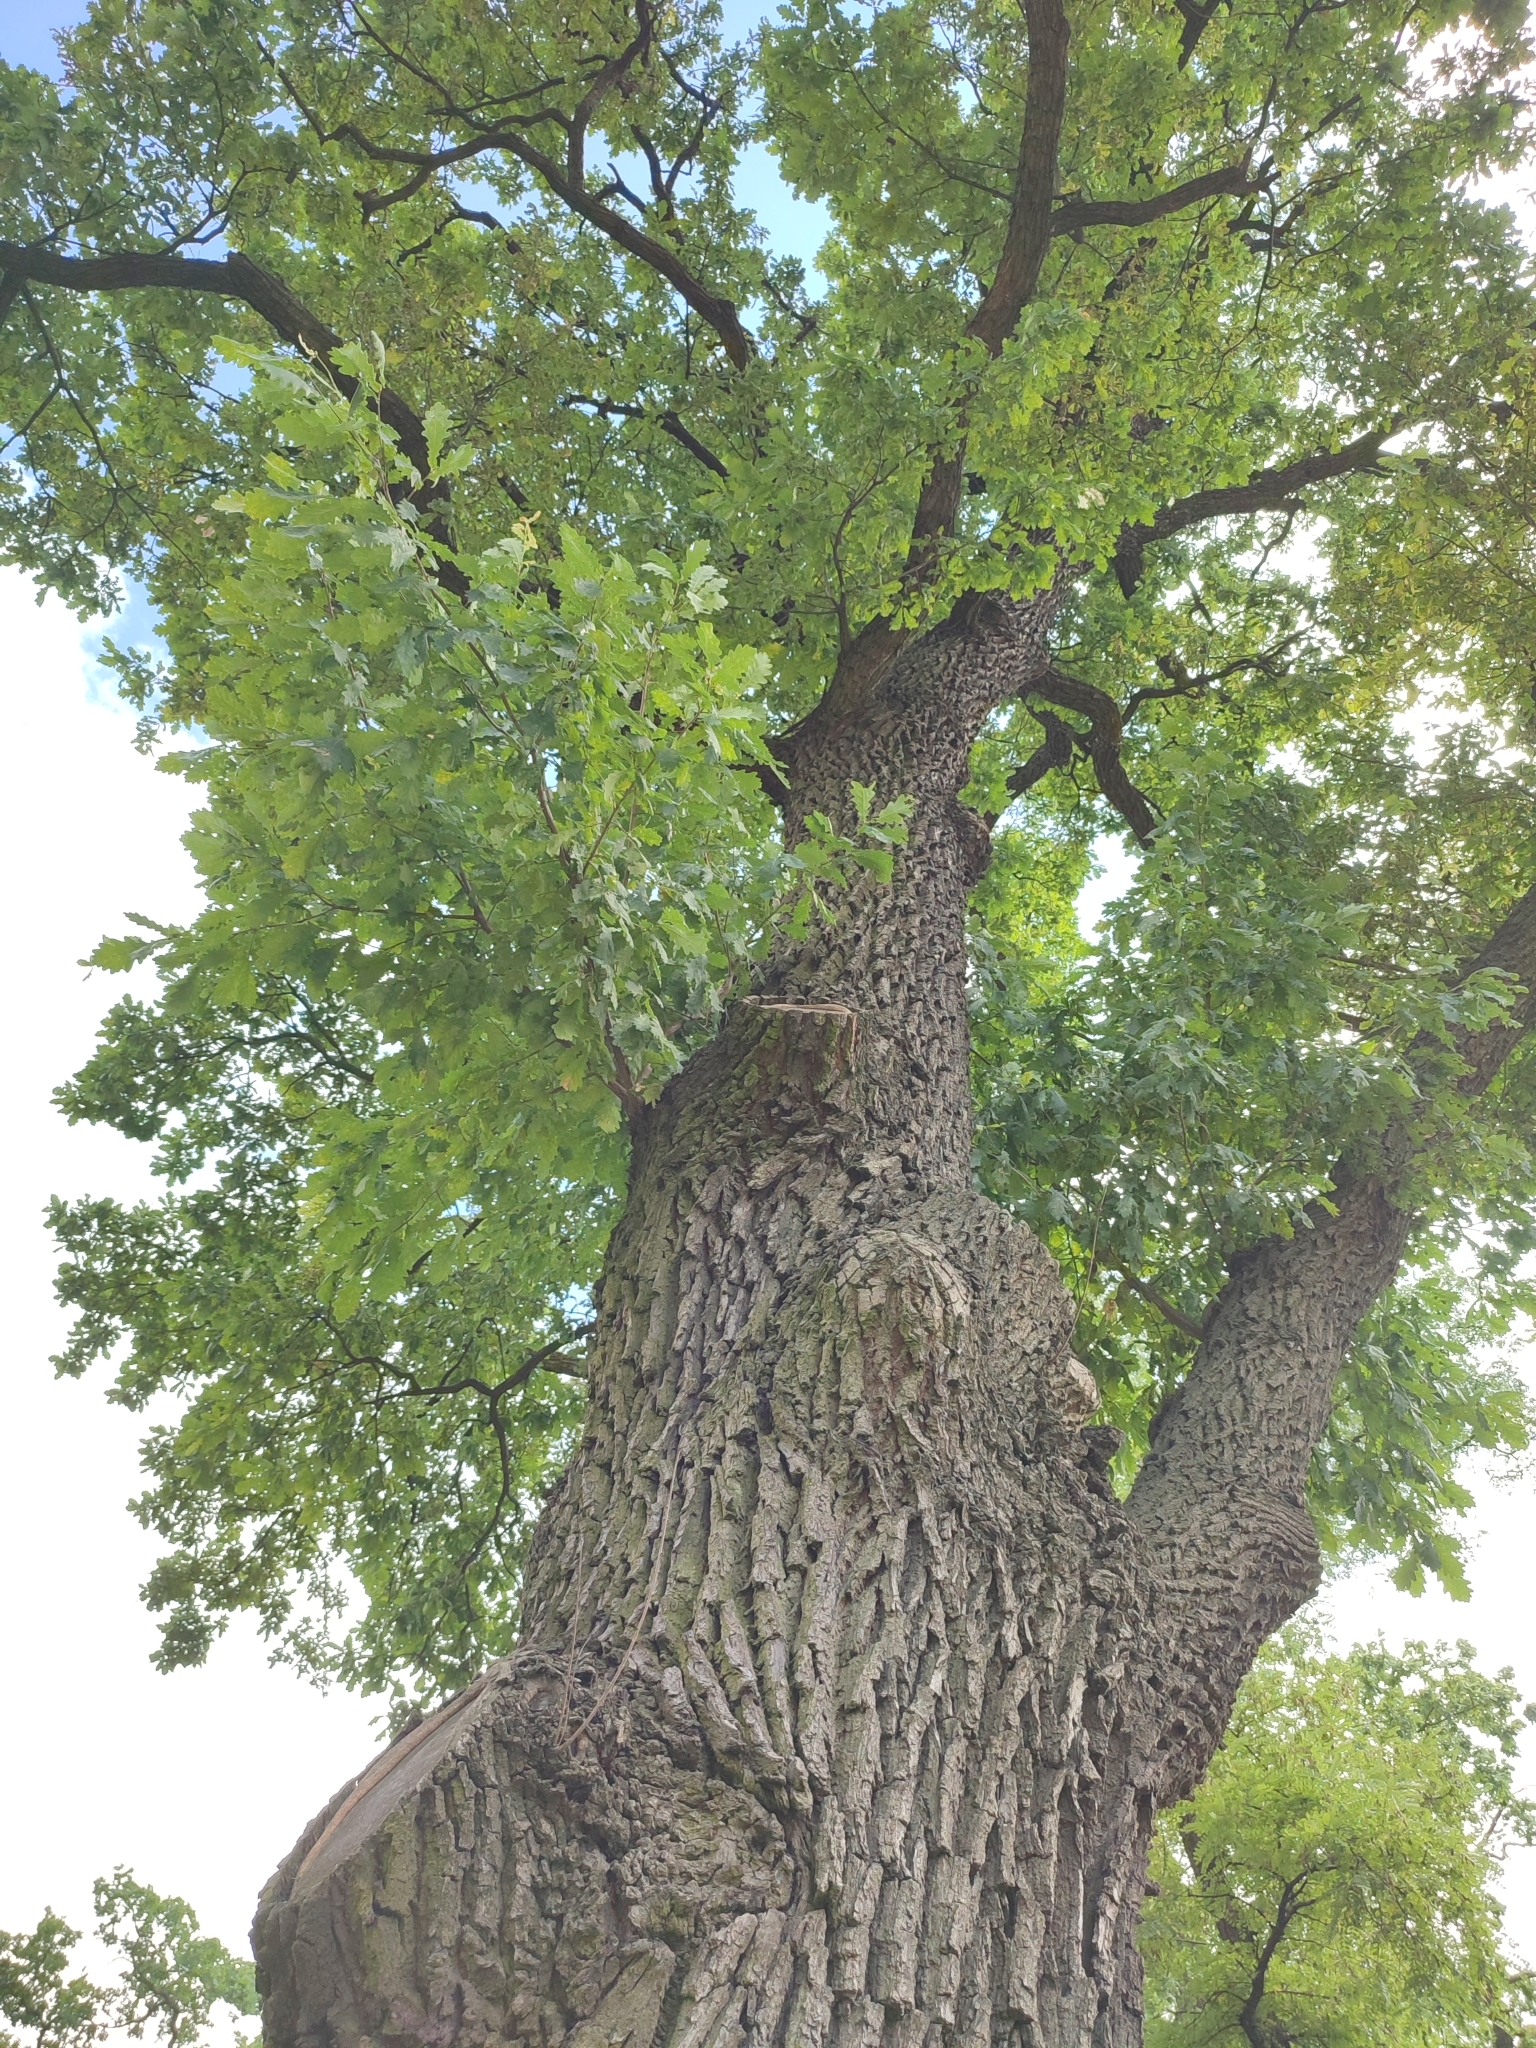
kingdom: Plantae
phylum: Tracheophyta
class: Magnoliopsida
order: Fagales
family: Fagaceae
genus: Quercus
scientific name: Quercus robur
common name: Pedunculate oak
